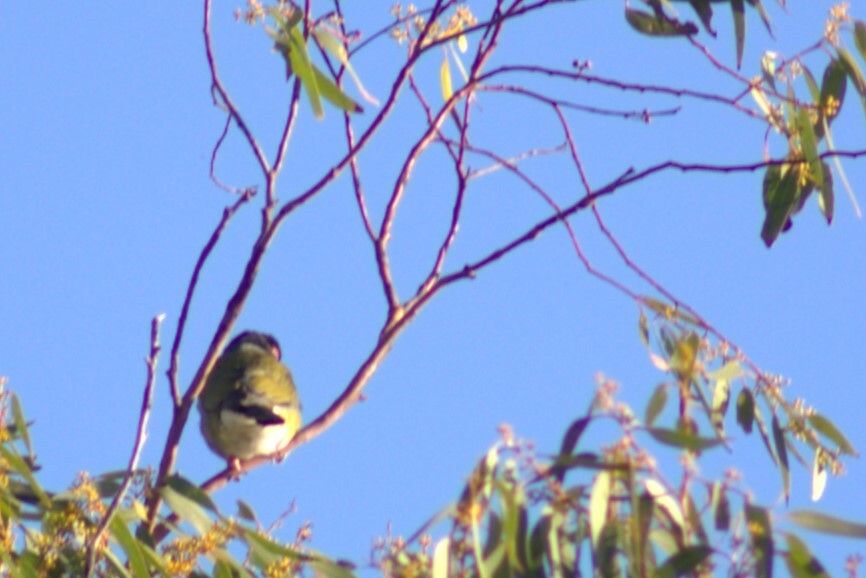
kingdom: Animalia
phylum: Chordata
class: Aves
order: Passeriformes
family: Oriolidae
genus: Sphecotheres
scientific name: Sphecotheres vieilloti
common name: Australasian figbird
